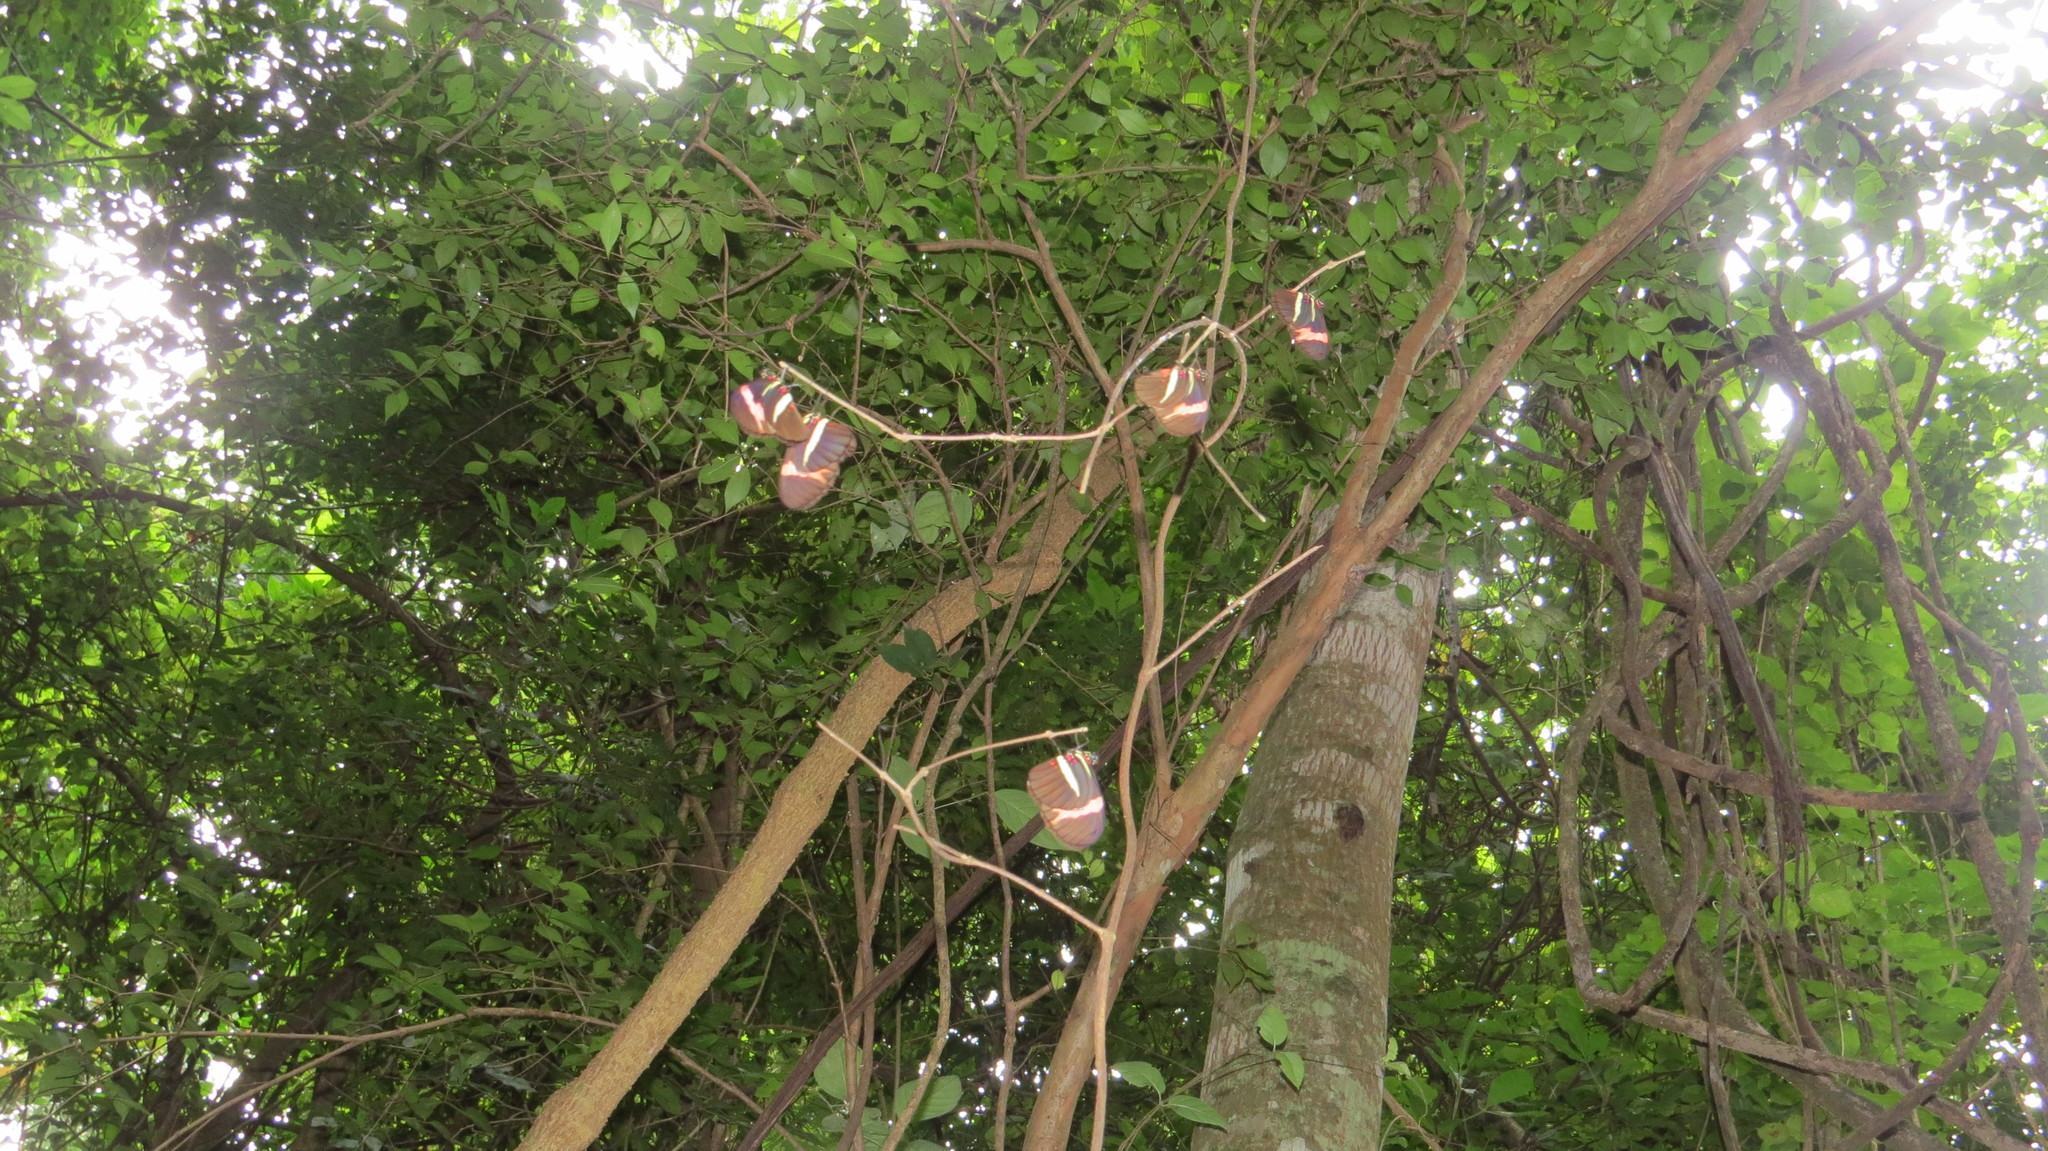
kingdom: Animalia
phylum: Arthropoda
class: Insecta
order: Lepidoptera
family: Nymphalidae
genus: Heliconius
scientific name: Heliconius erato
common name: Common patch longwing
